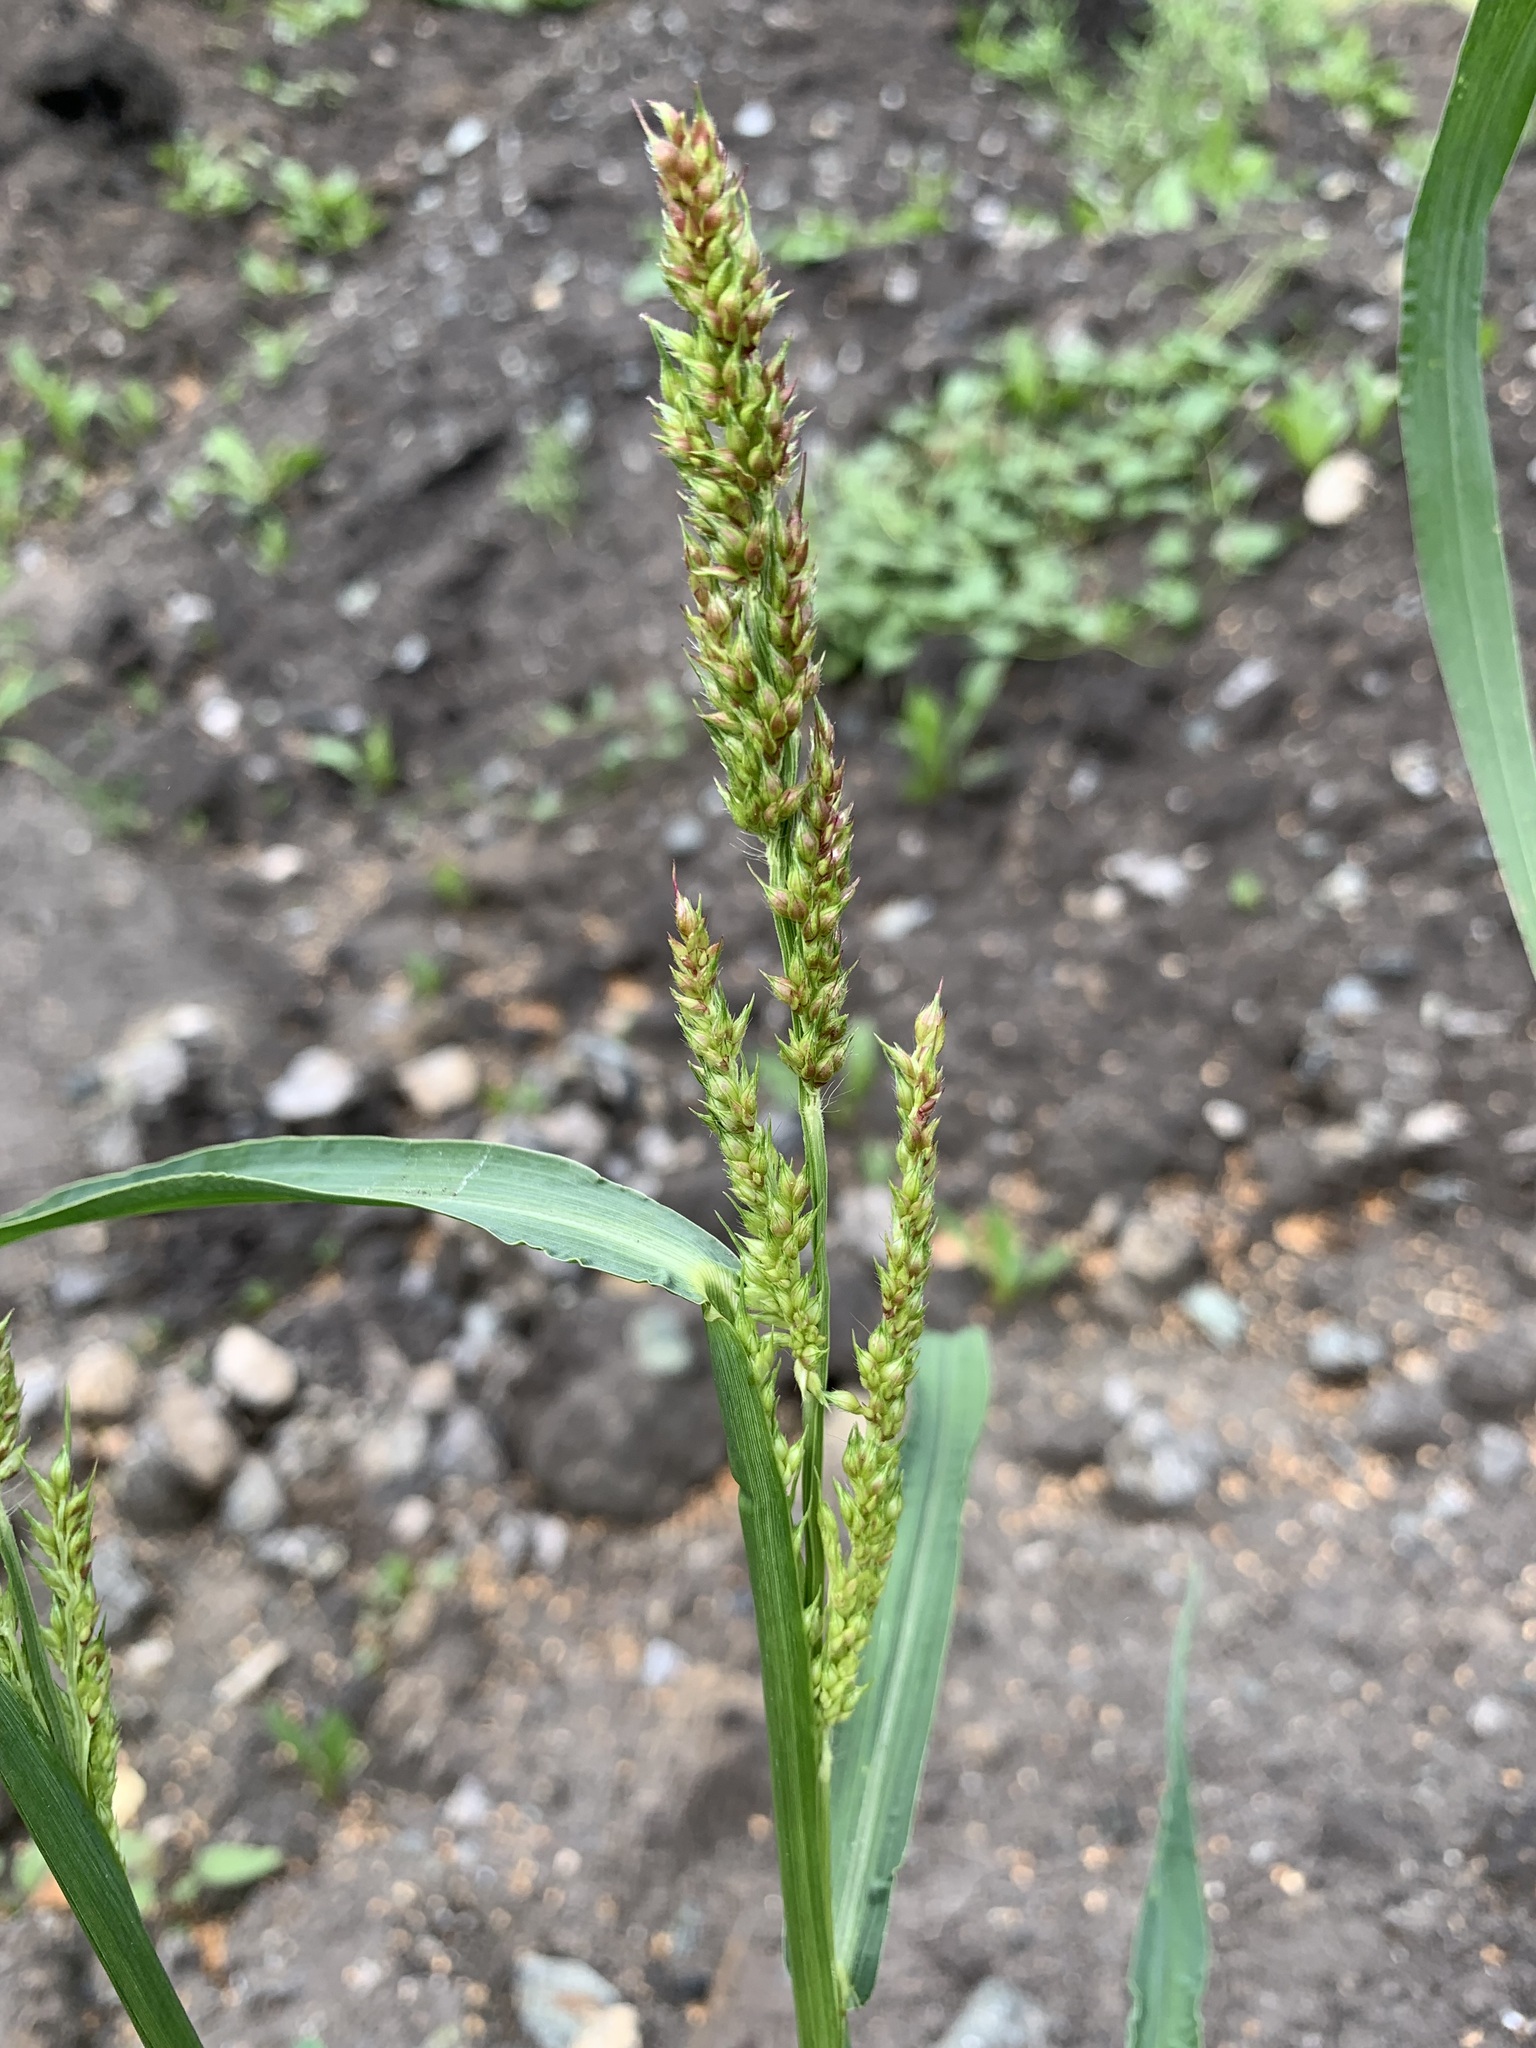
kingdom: Plantae
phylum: Tracheophyta
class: Liliopsida
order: Poales
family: Poaceae
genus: Echinochloa
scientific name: Echinochloa crus-galli
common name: Cockspur
